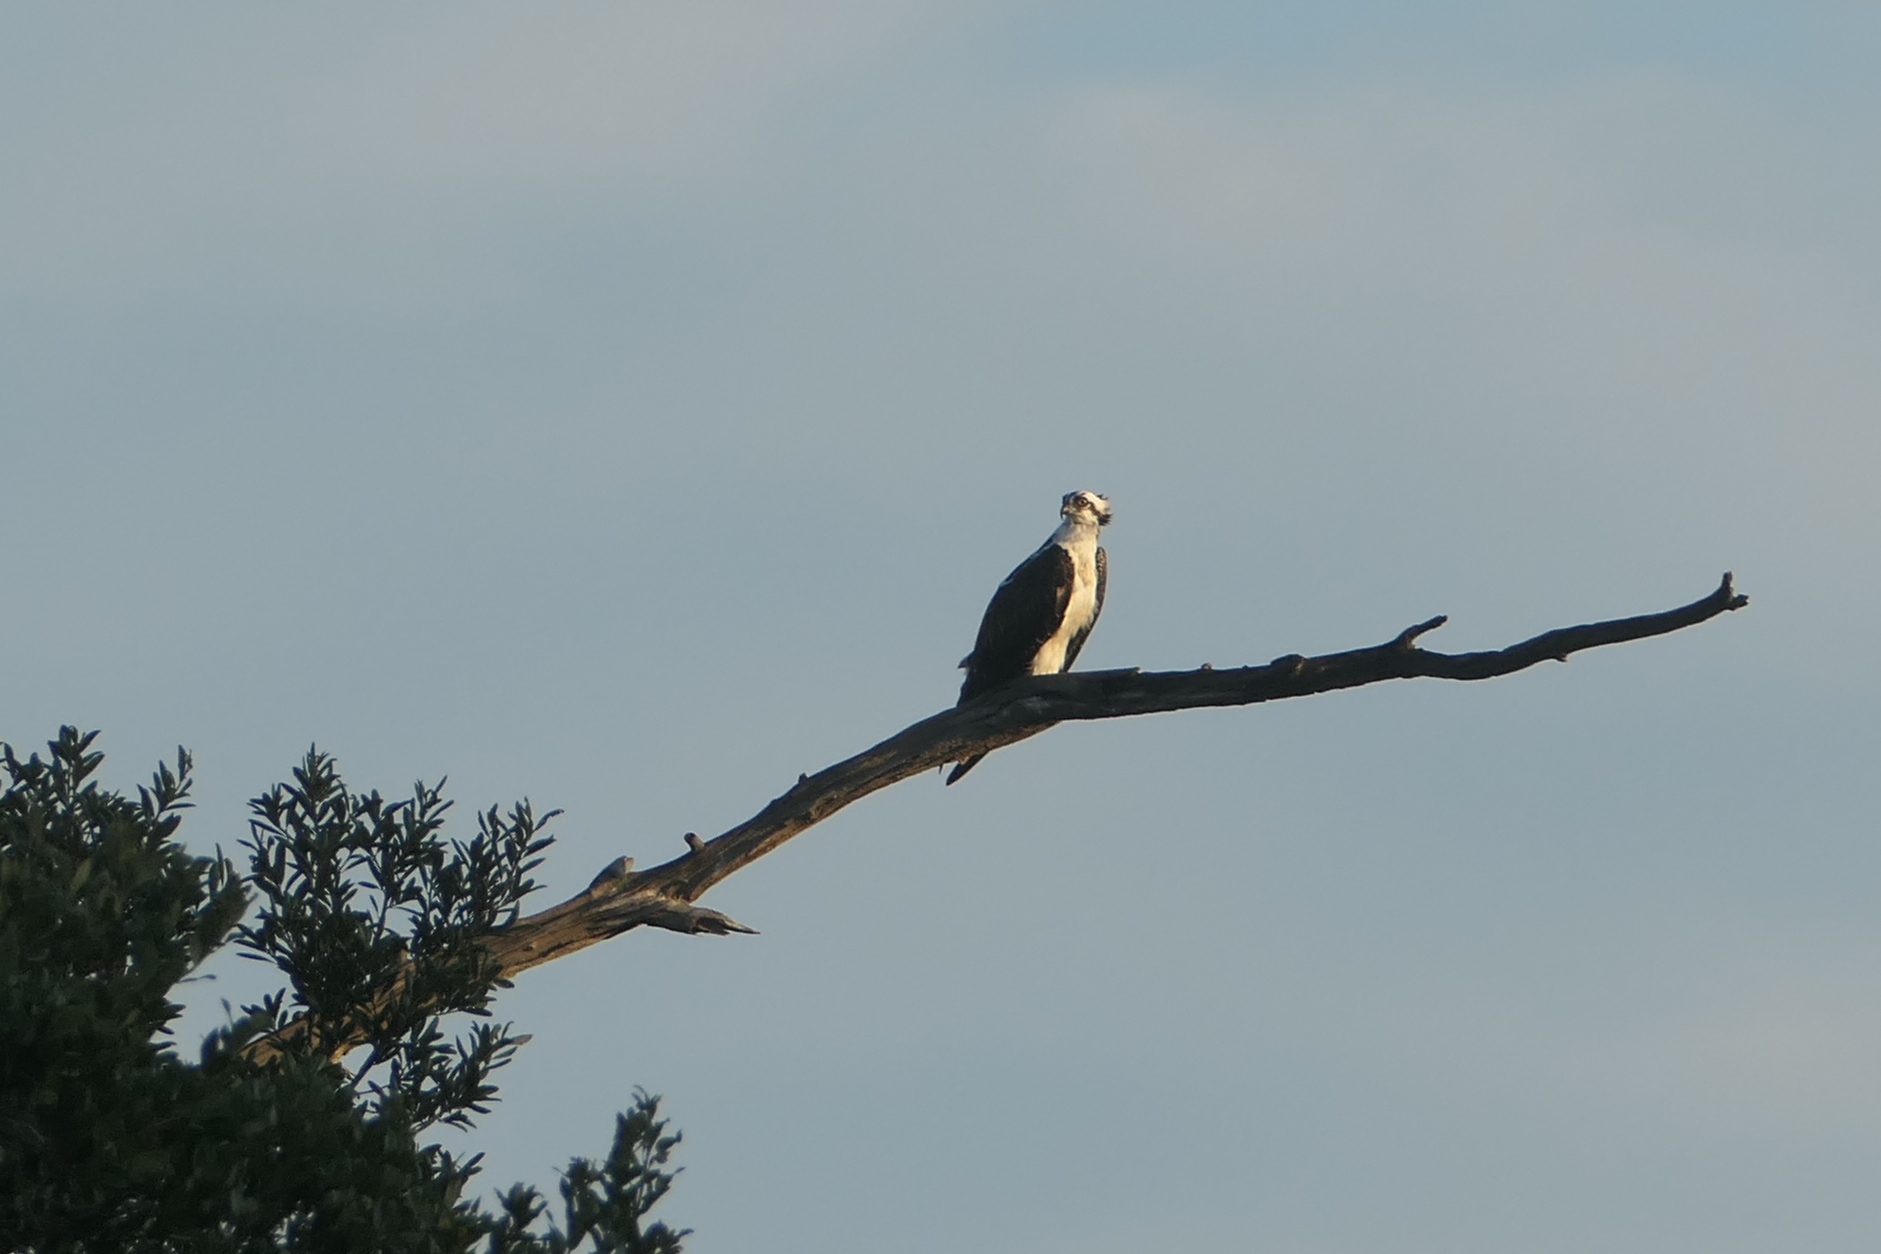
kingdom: Animalia
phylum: Chordata
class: Aves
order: Accipitriformes
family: Pandionidae
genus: Pandion
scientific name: Pandion haliaetus
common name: Osprey
